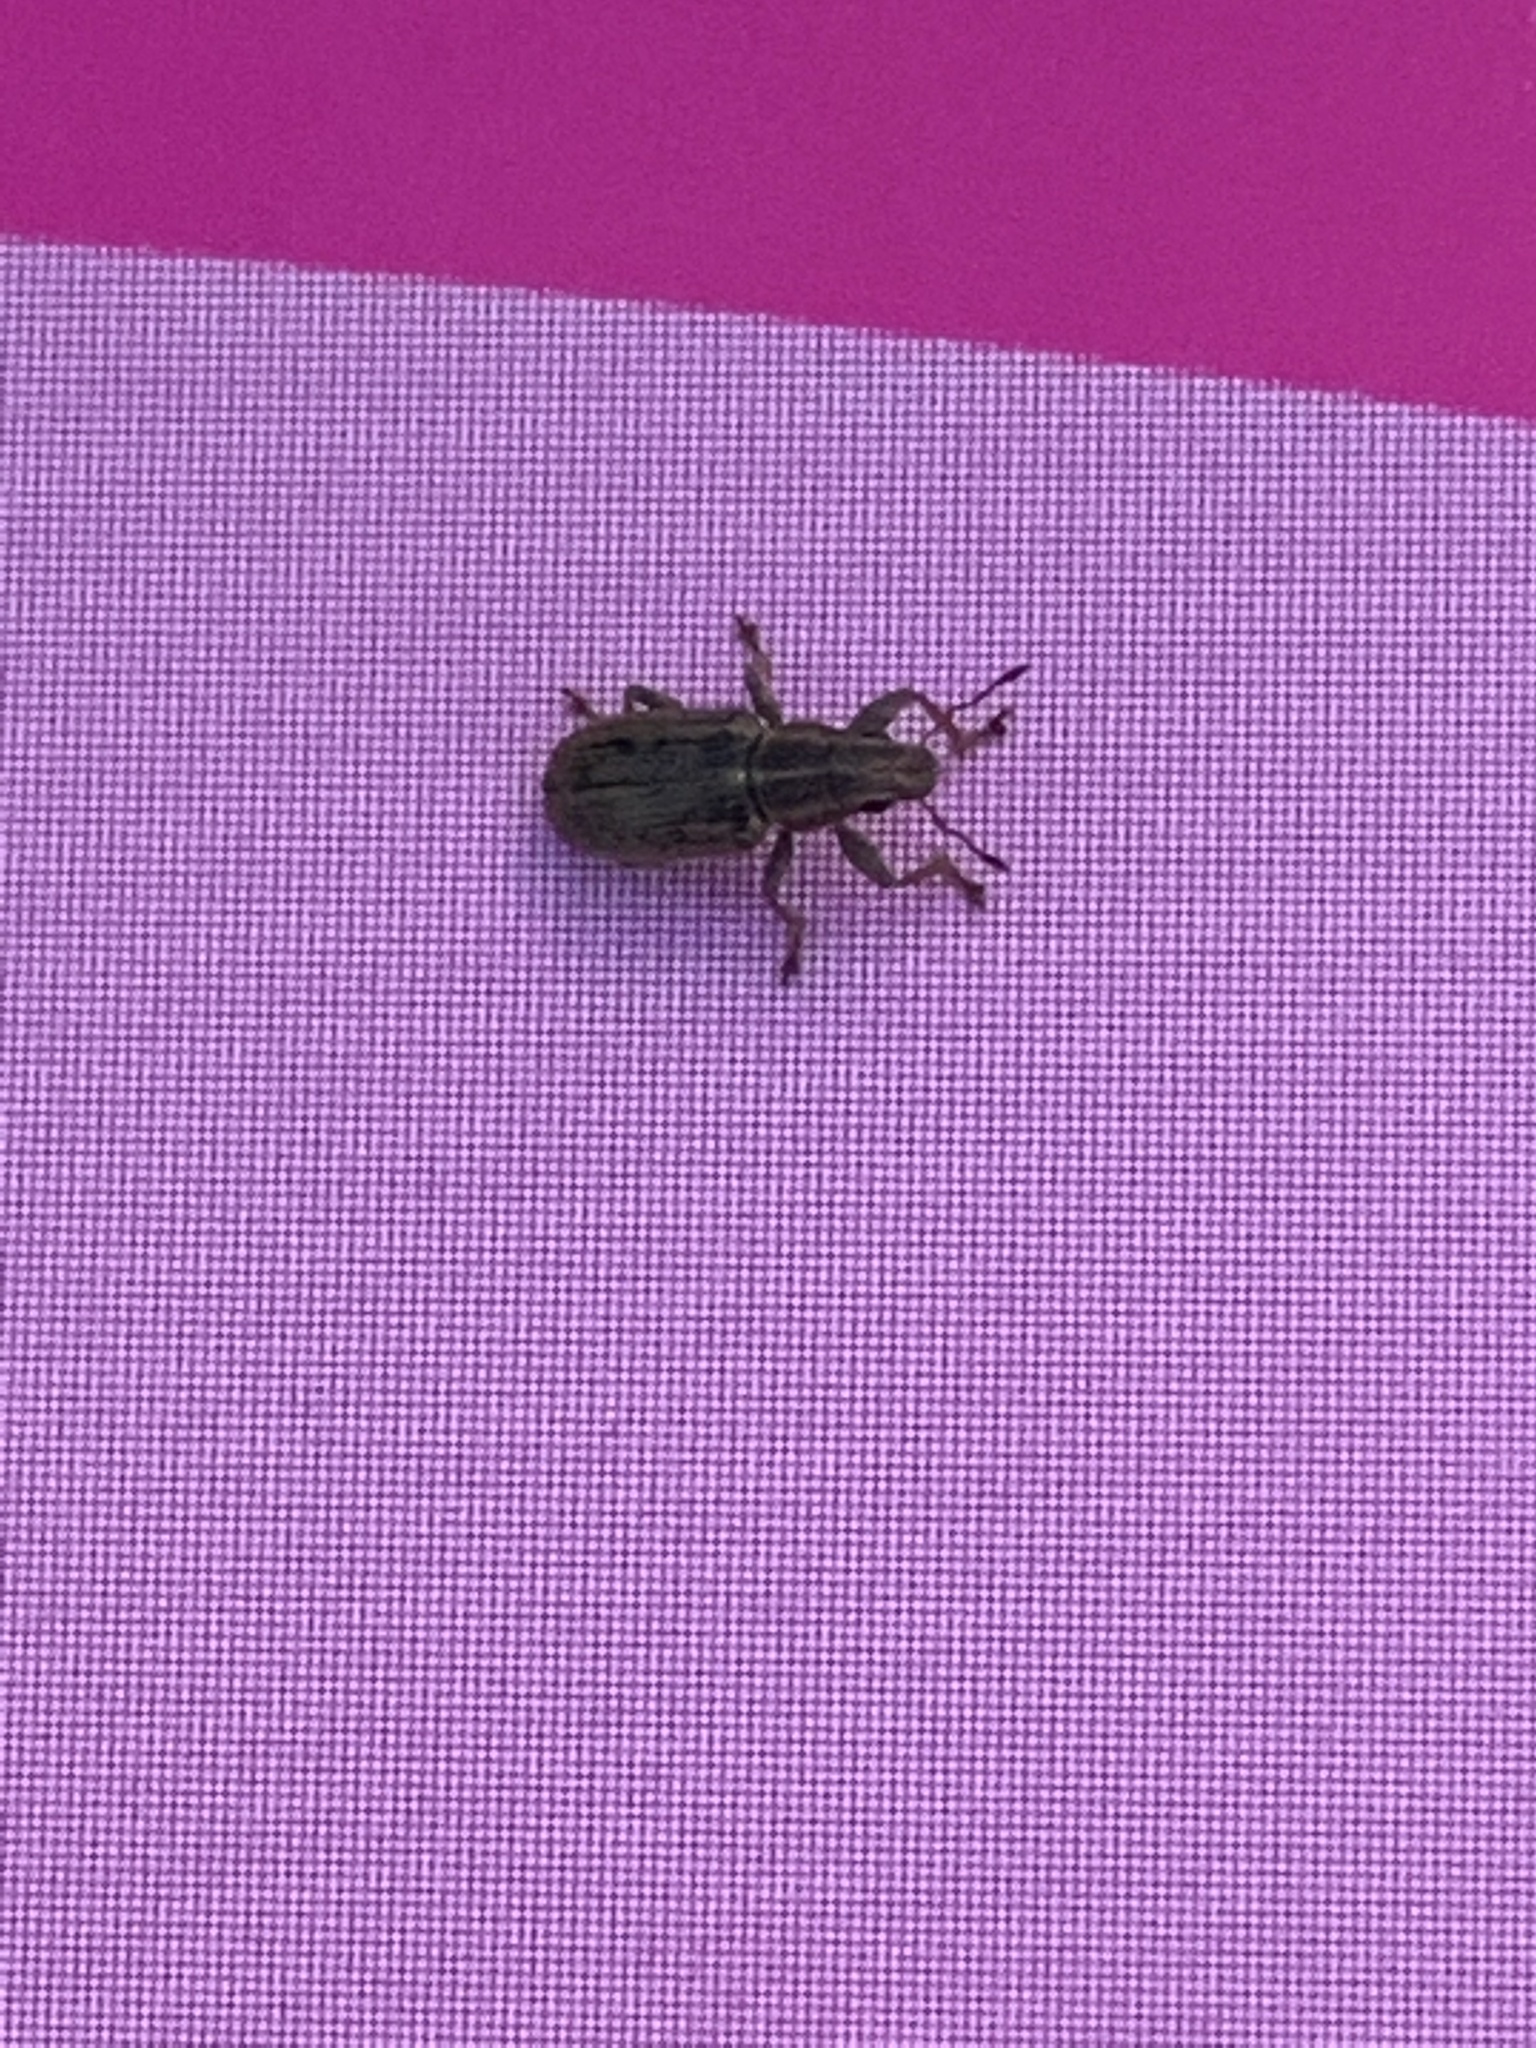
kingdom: Animalia
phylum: Arthropoda
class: Insecta
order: Coleoptera
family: Curculionidae
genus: Sitona
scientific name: Sitona lineatus
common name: Weevil
